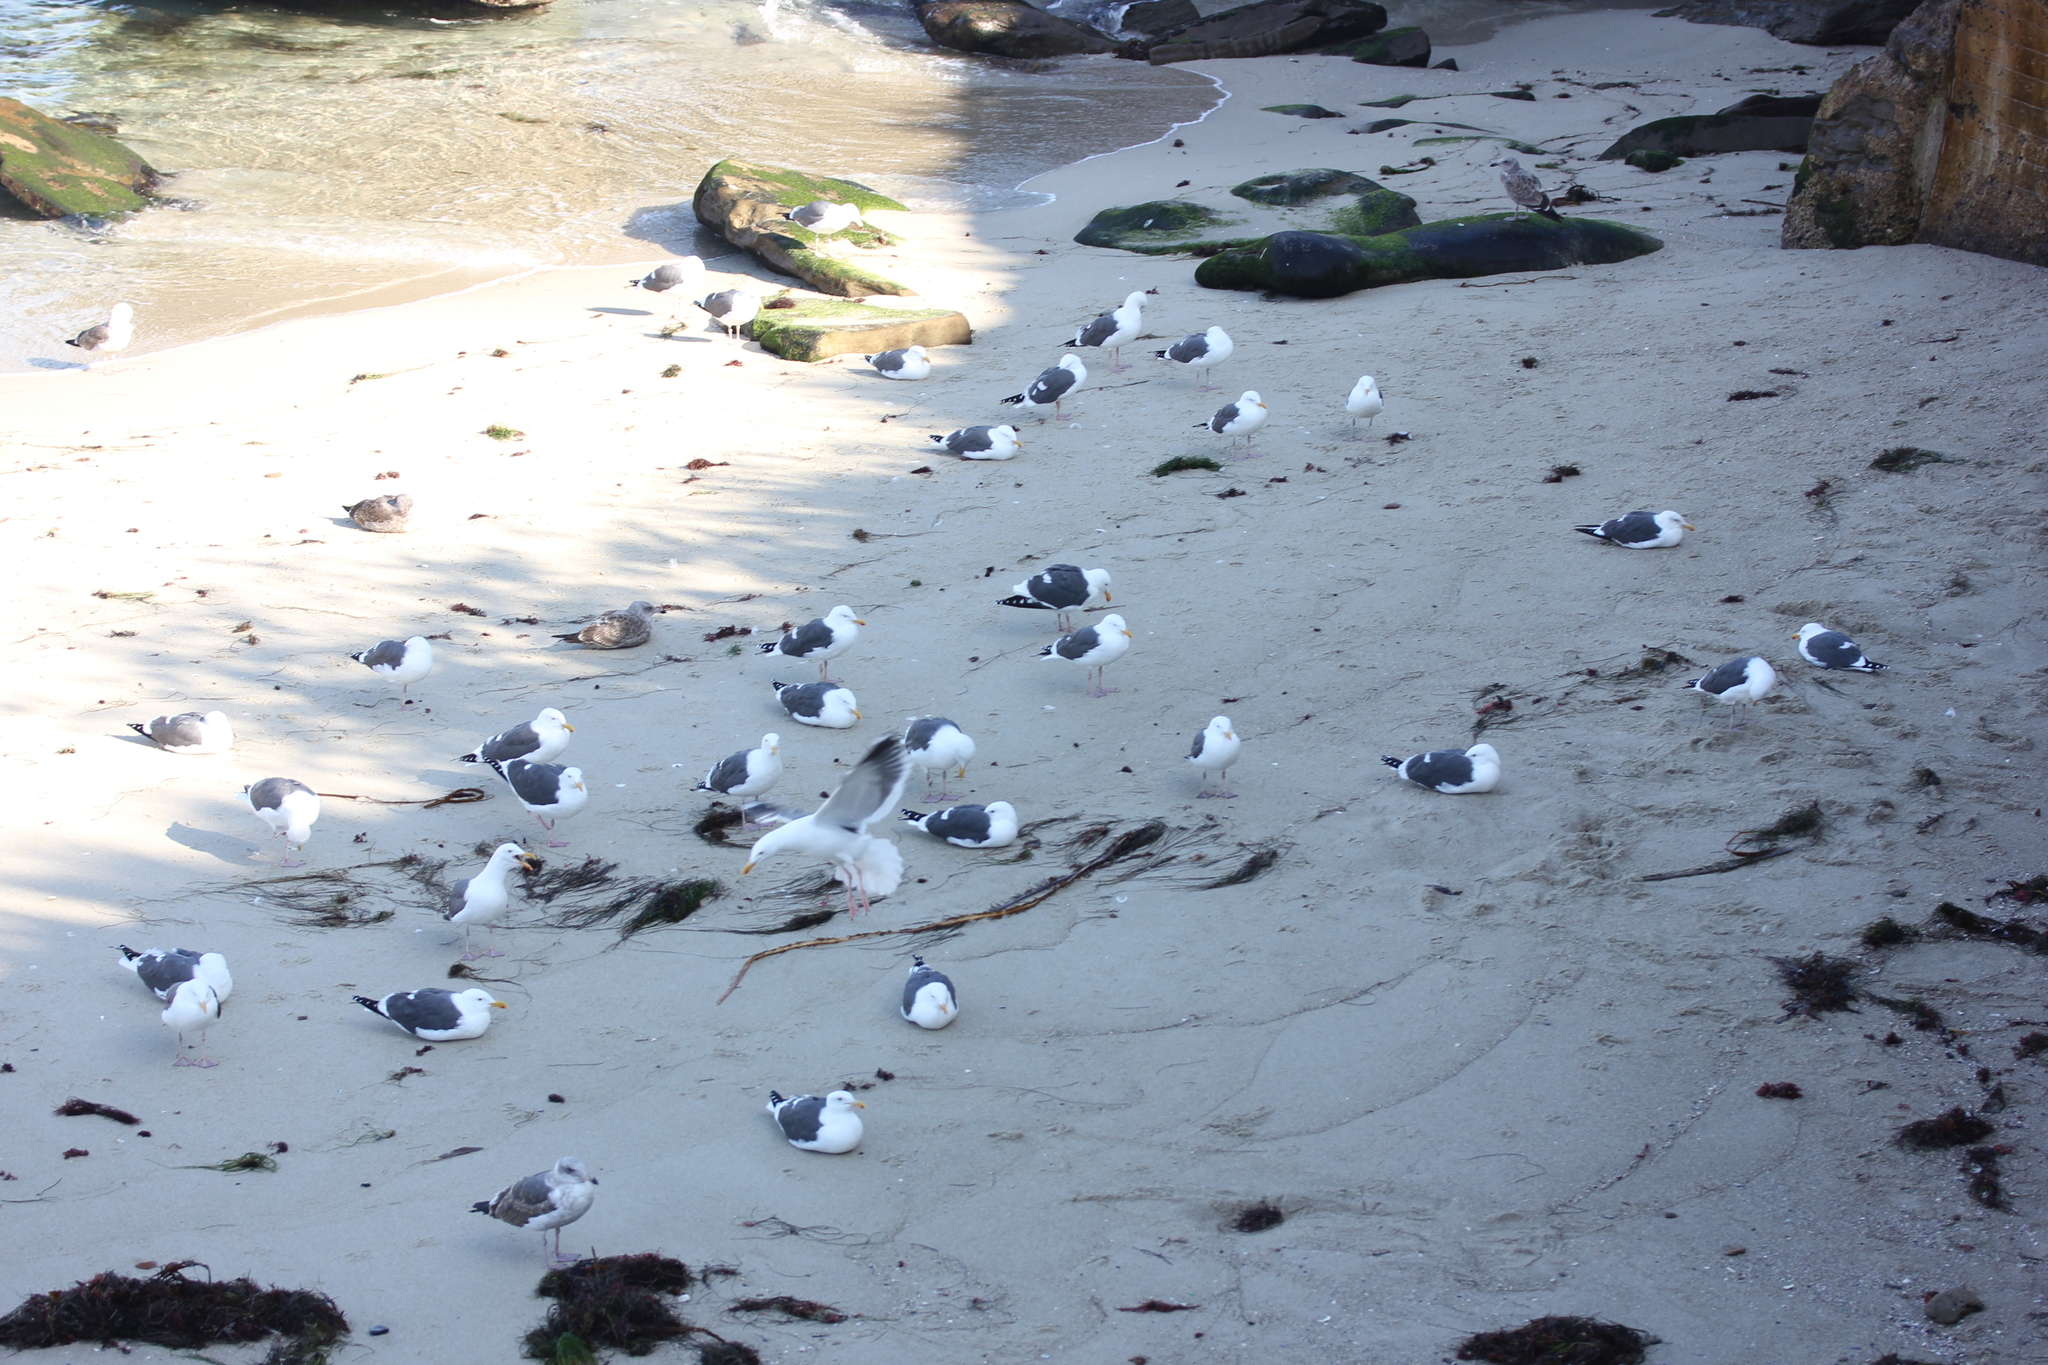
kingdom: Animalia
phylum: Chordata
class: Aves
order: Charadriiformes
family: Laridae
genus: Larus
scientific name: Larus occidentalis
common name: Western gull
